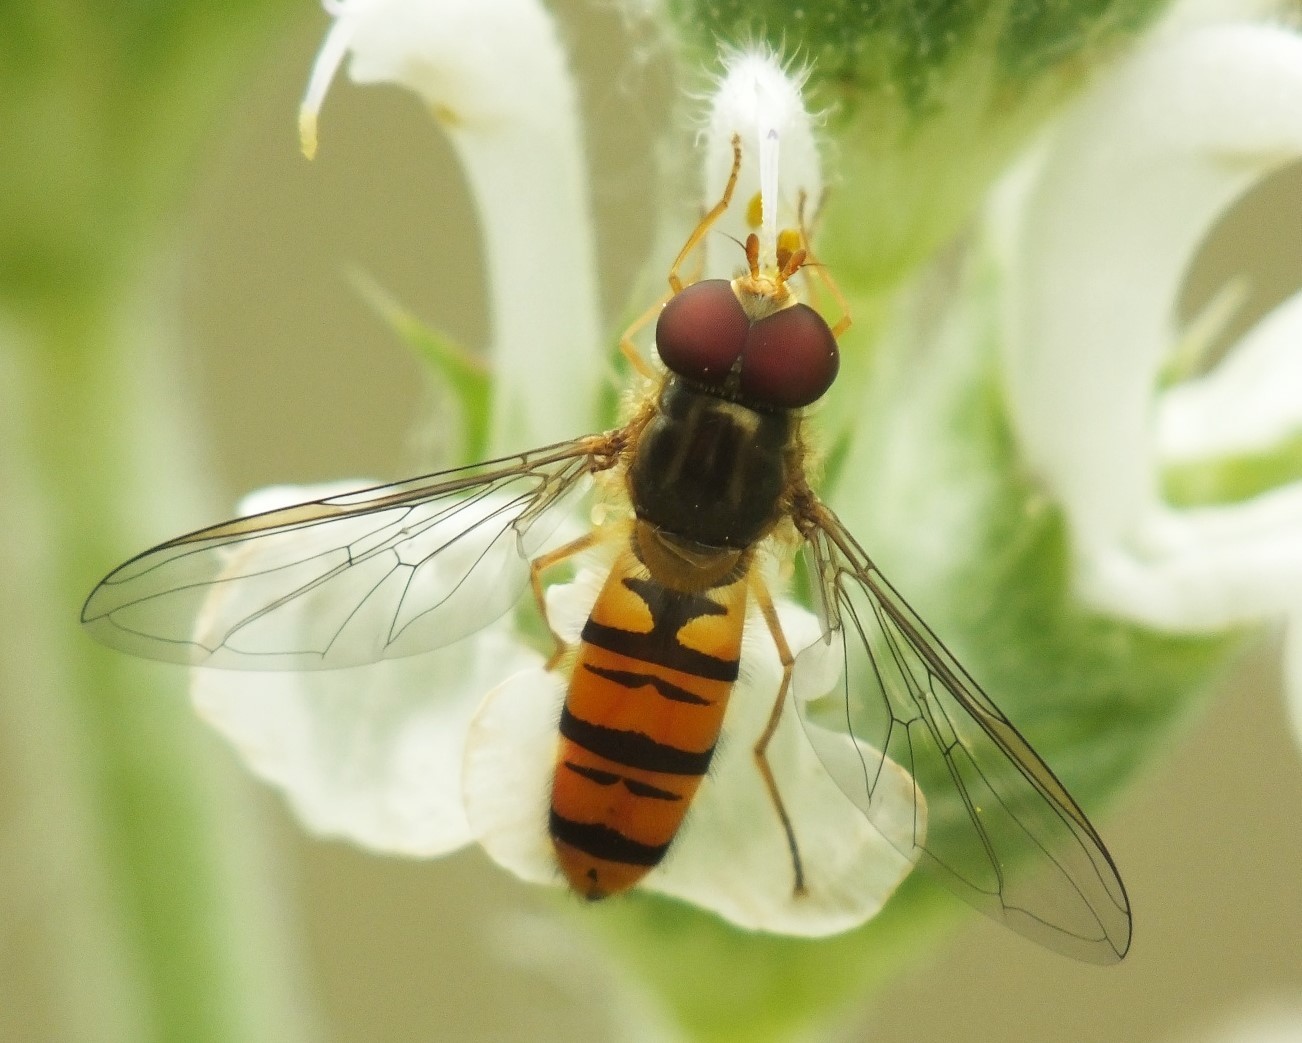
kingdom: Animalia
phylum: Arthropoda
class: Insecta
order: Diptera
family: Syrphidae
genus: Episyrphus
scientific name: Episyrphus balteatus
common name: Marmalade hoverfly
